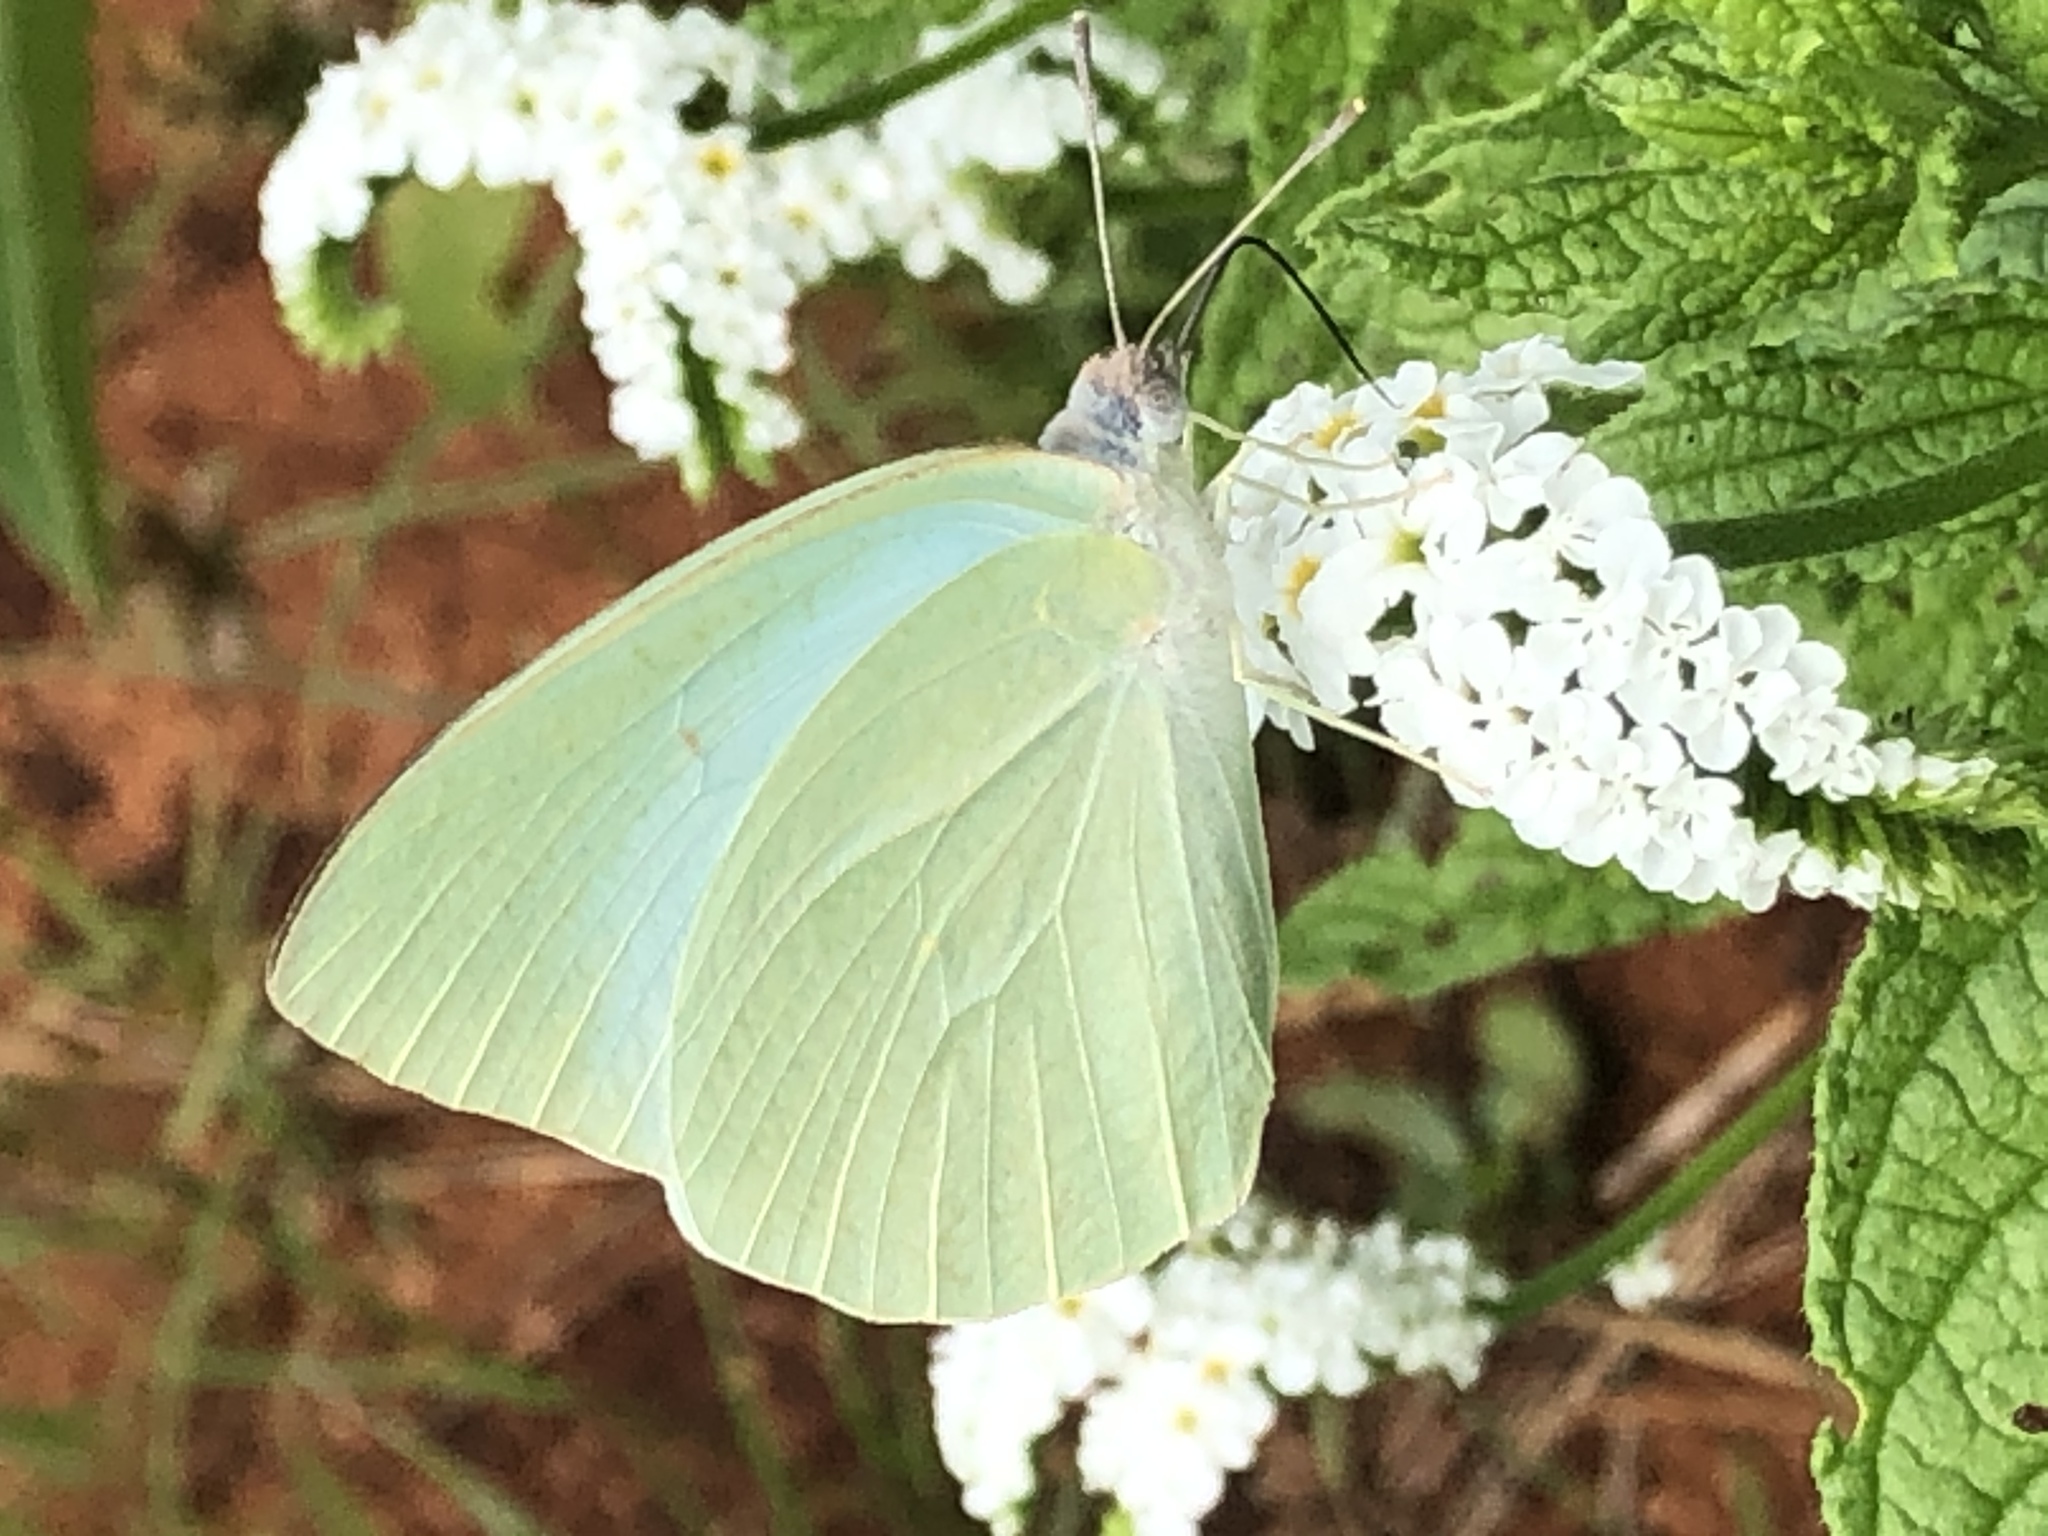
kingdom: Animalia
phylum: Arthropoda
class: Insecta
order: Lepidoptera
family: Pieridae
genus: Catopsilia
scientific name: Catopsilia florella
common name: African migrant
